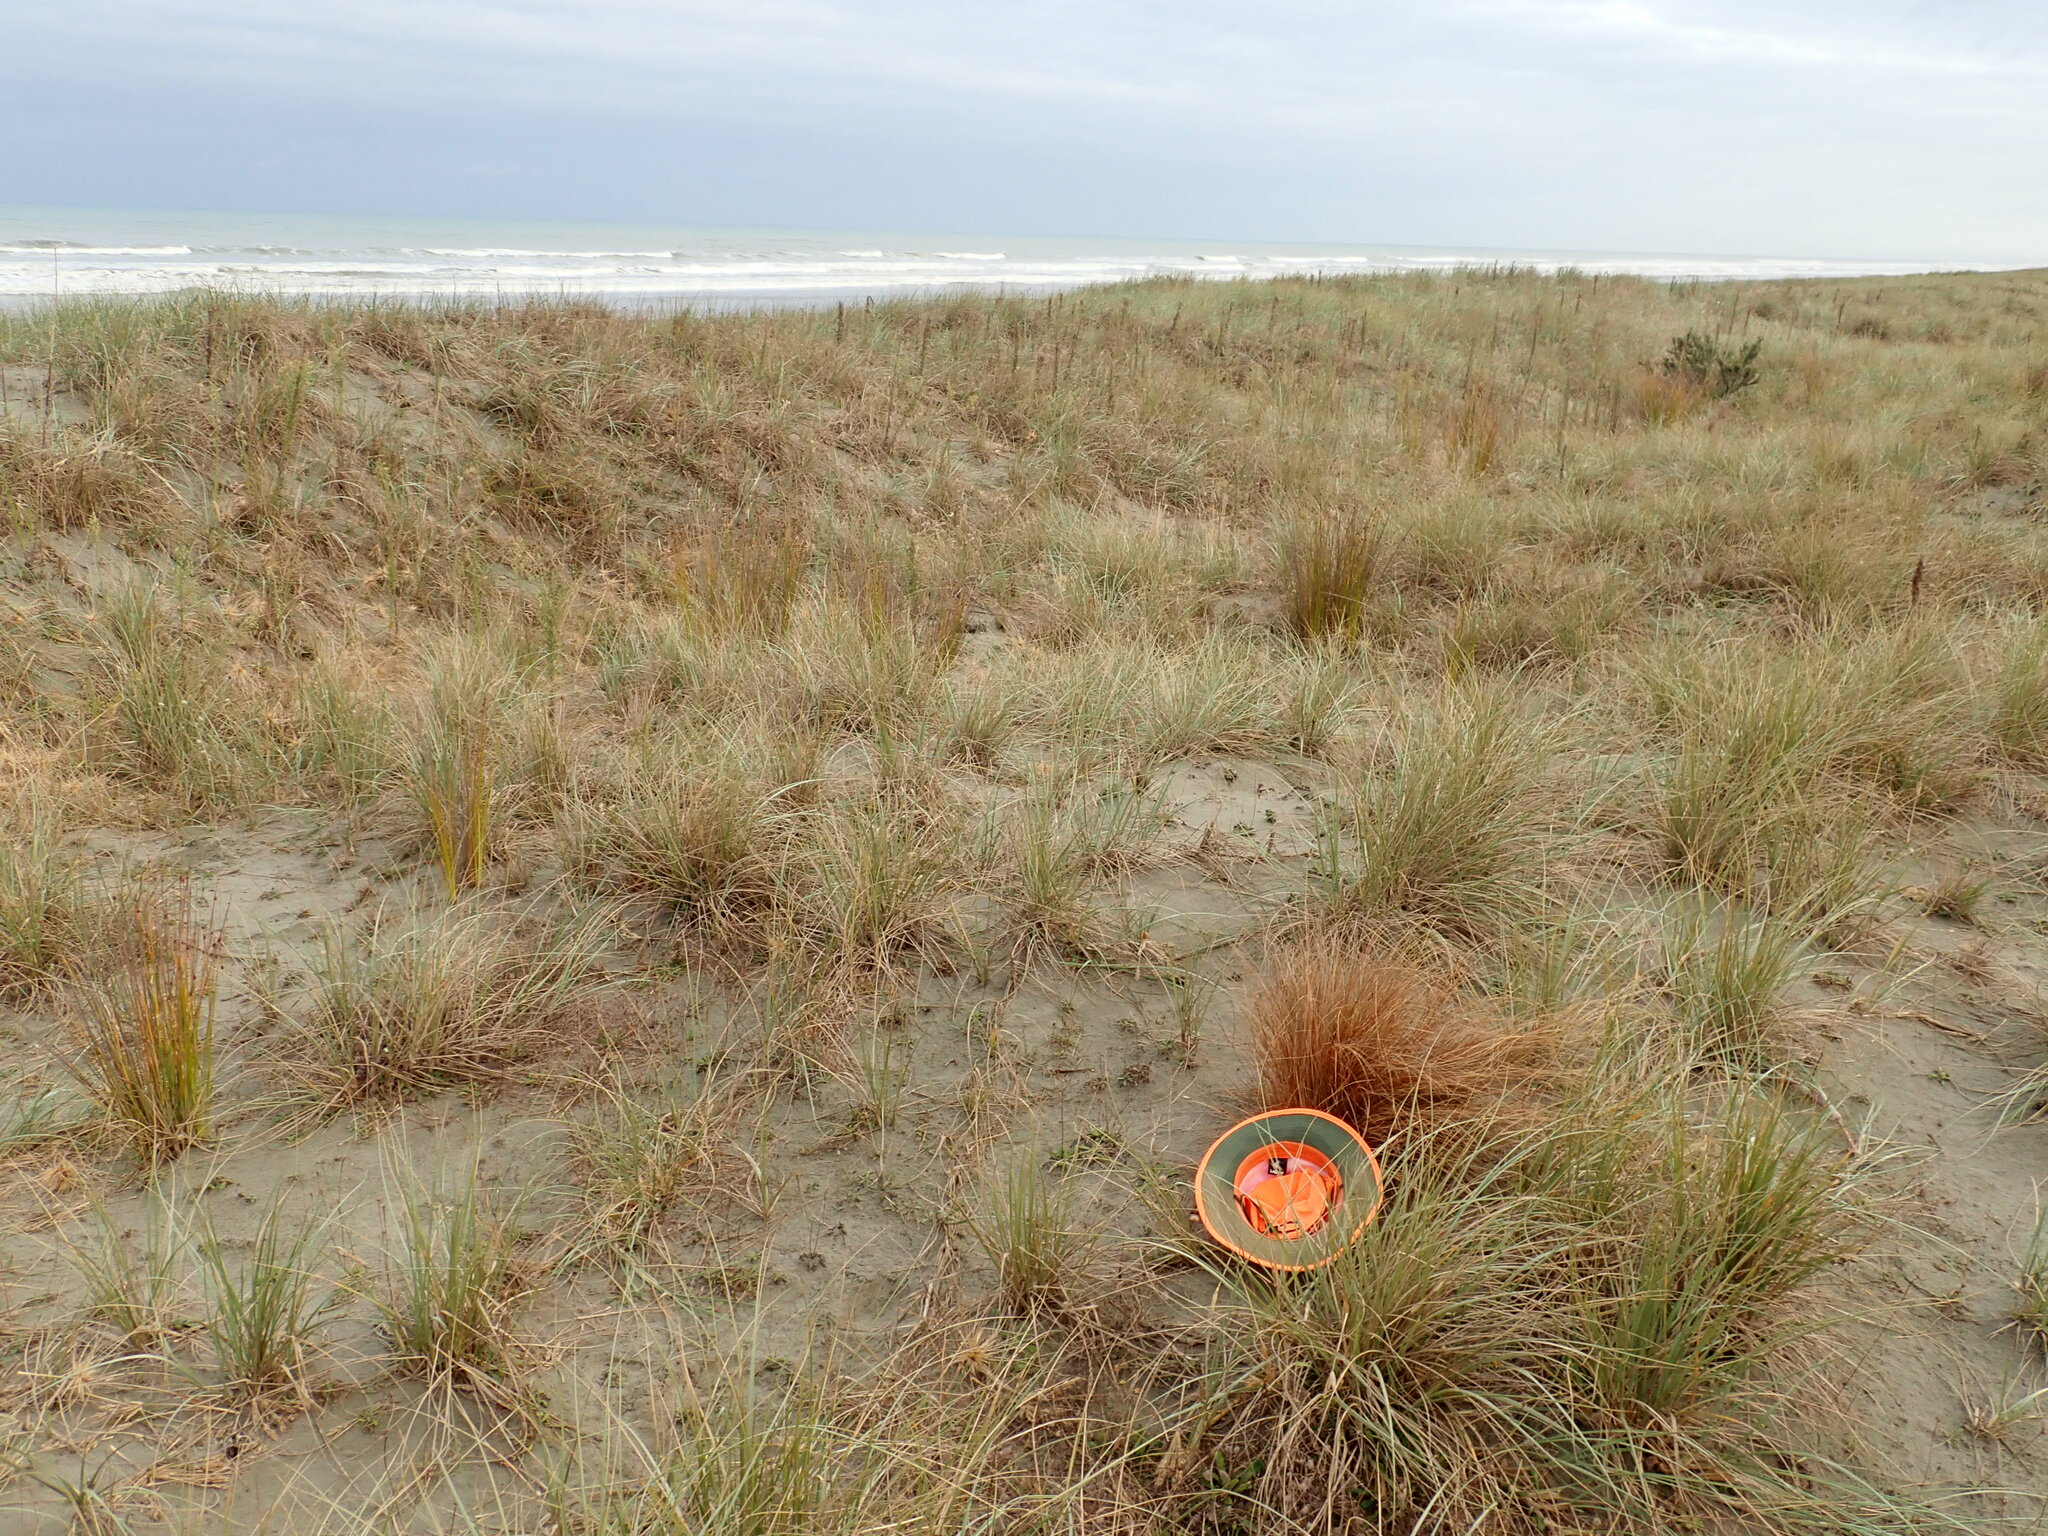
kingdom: Animalia
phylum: Arthropoda
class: Insecta
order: Hymenoptera
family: Sphecidae
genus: Podalonia
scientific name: Podalonia tydei
